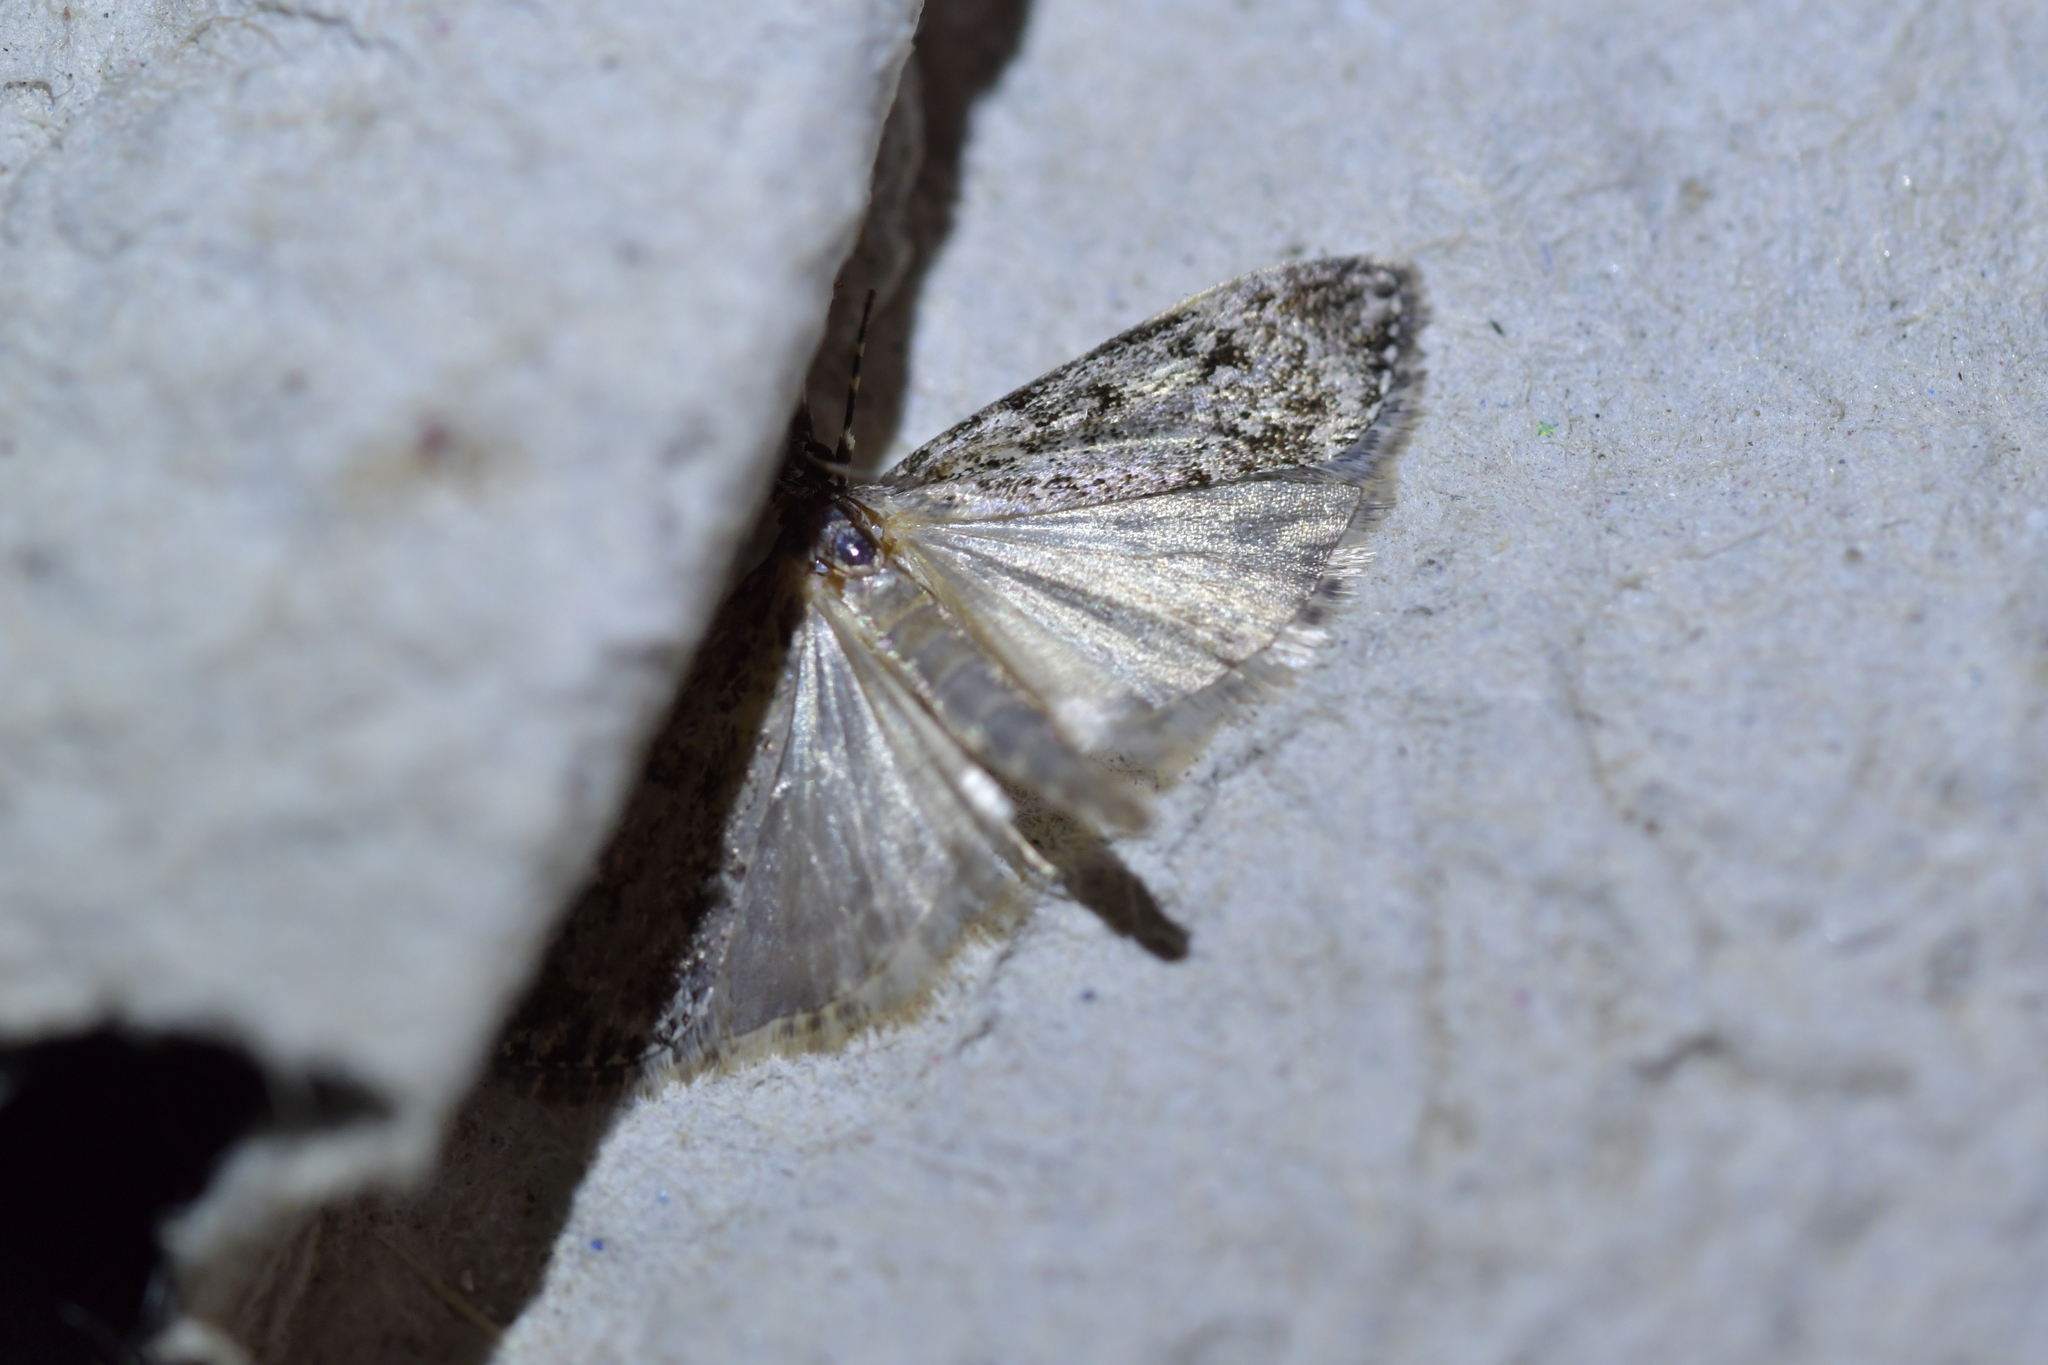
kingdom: Animalia
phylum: Arthropoda
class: Insecta
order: Lepidoptera
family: Crambidae
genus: Eudonia
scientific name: Eudonia philerga
